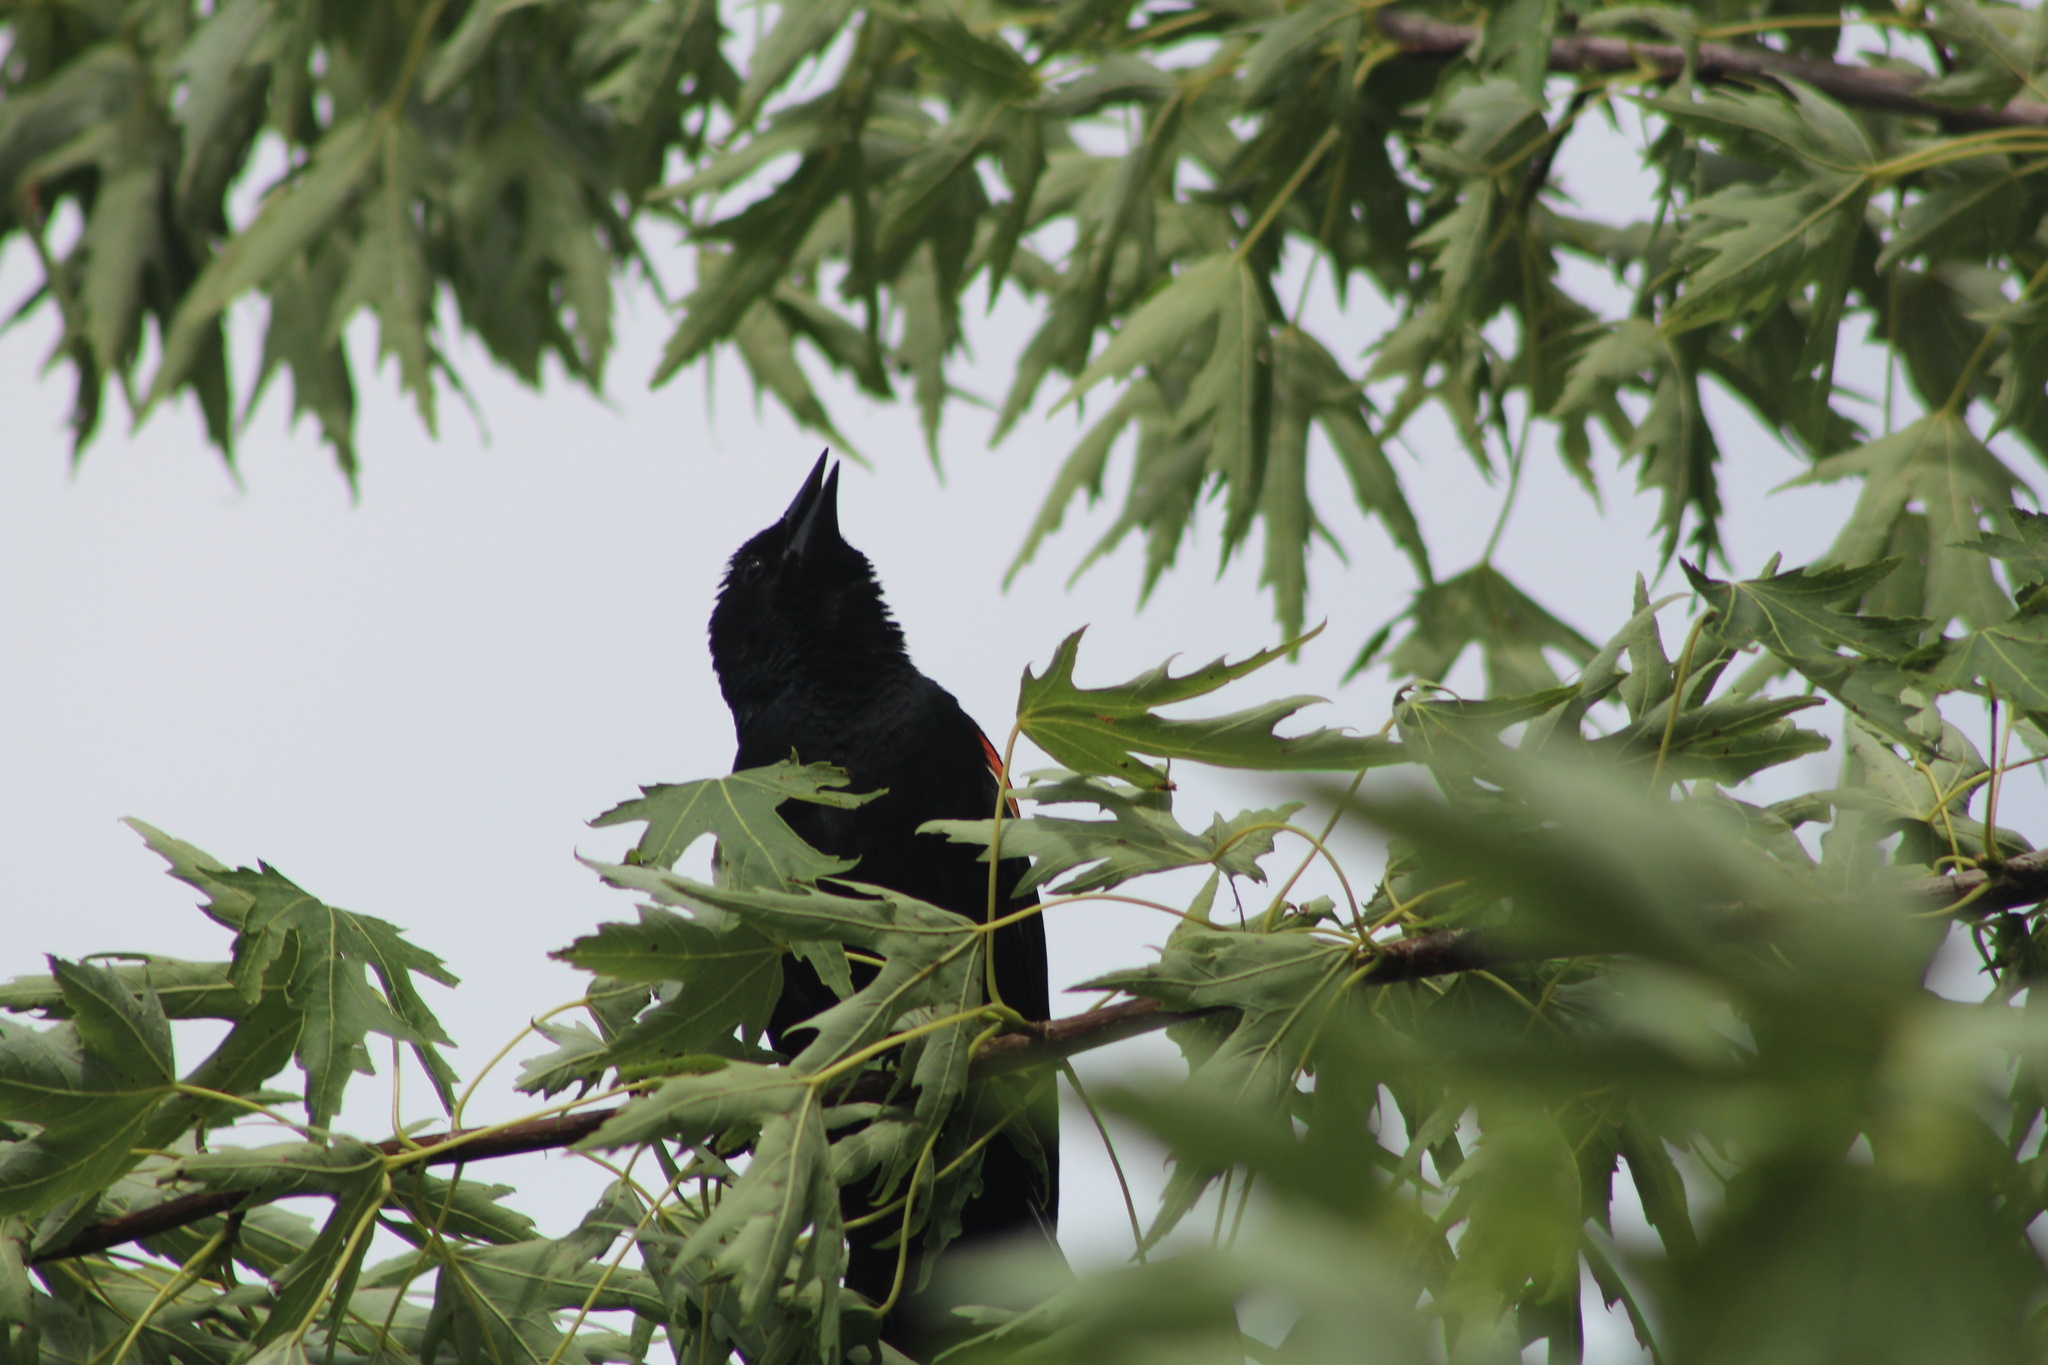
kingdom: Animalia
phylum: Chordata
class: Aves
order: Passeriformes
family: Icteridae
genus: Agelaius
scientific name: Agelaius phoeniceus
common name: Red-winged blackbird
